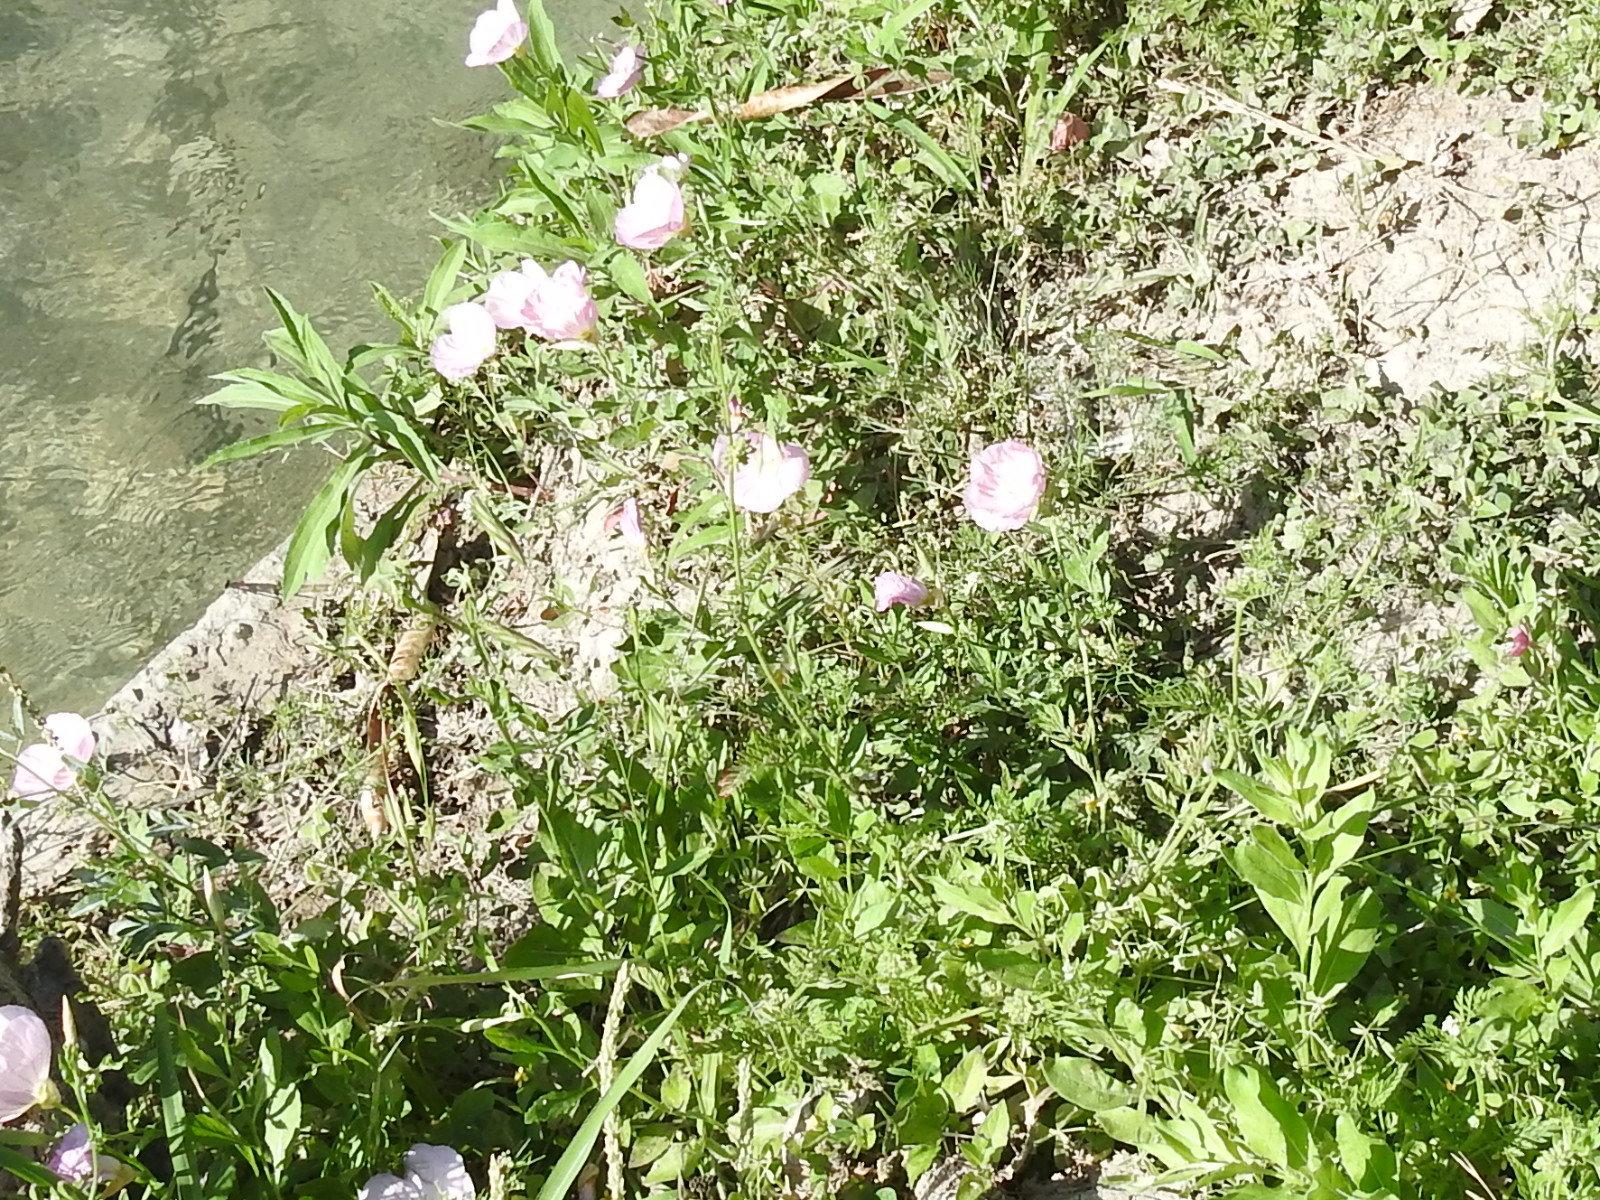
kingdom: Plantae
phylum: Tracheophyta
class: Magnoliopsida
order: Apiales
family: Apiaceae
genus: Torilis
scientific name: Torilis nodosa
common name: Knotted hedge-parsley
